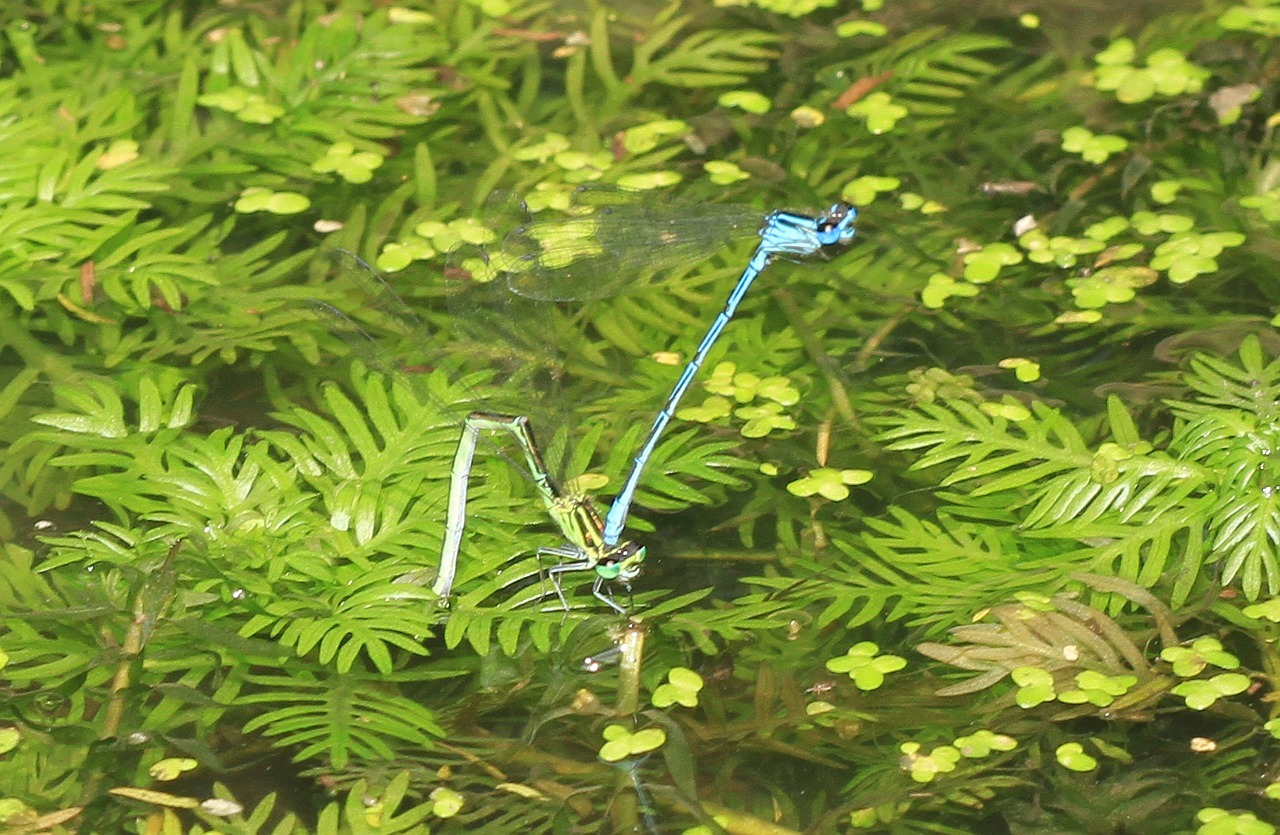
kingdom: Animalia
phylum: Arthropoda
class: Insecta
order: Odonata
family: Coenagrionidae
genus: Coenagrion
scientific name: Coenagrion puella
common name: Azure damselfly
